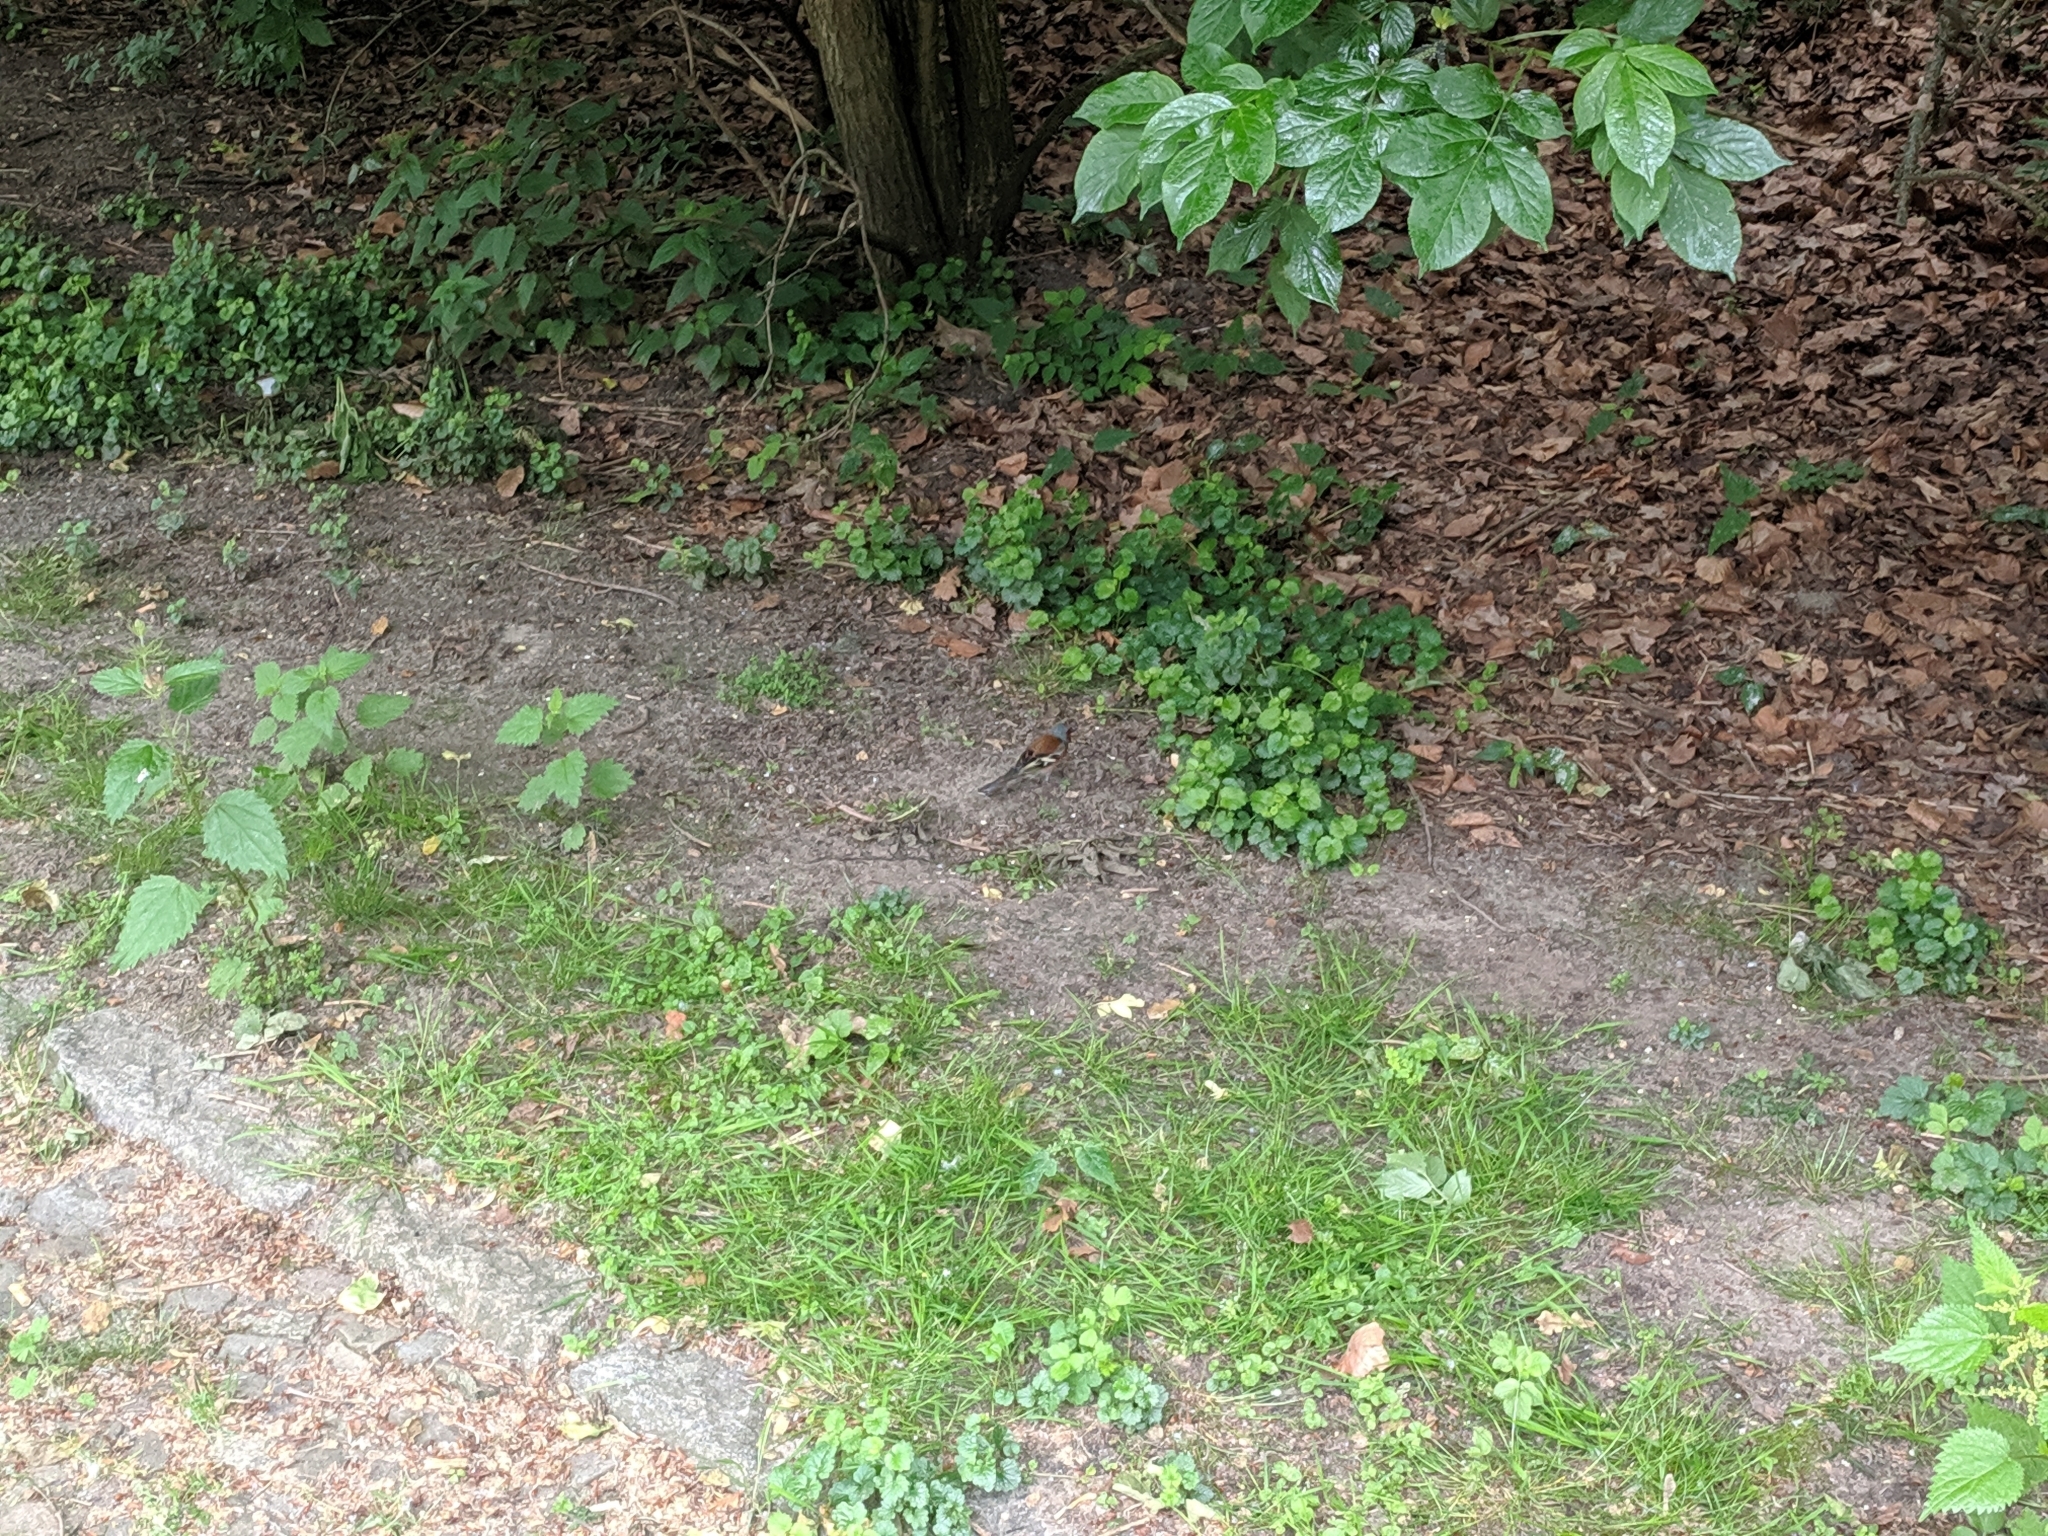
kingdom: Animalia
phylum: Chordata
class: Aves
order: Passeriformes
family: Fringillidae
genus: Fringilla
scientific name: Fringilla coelebs
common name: Common chaffinch
